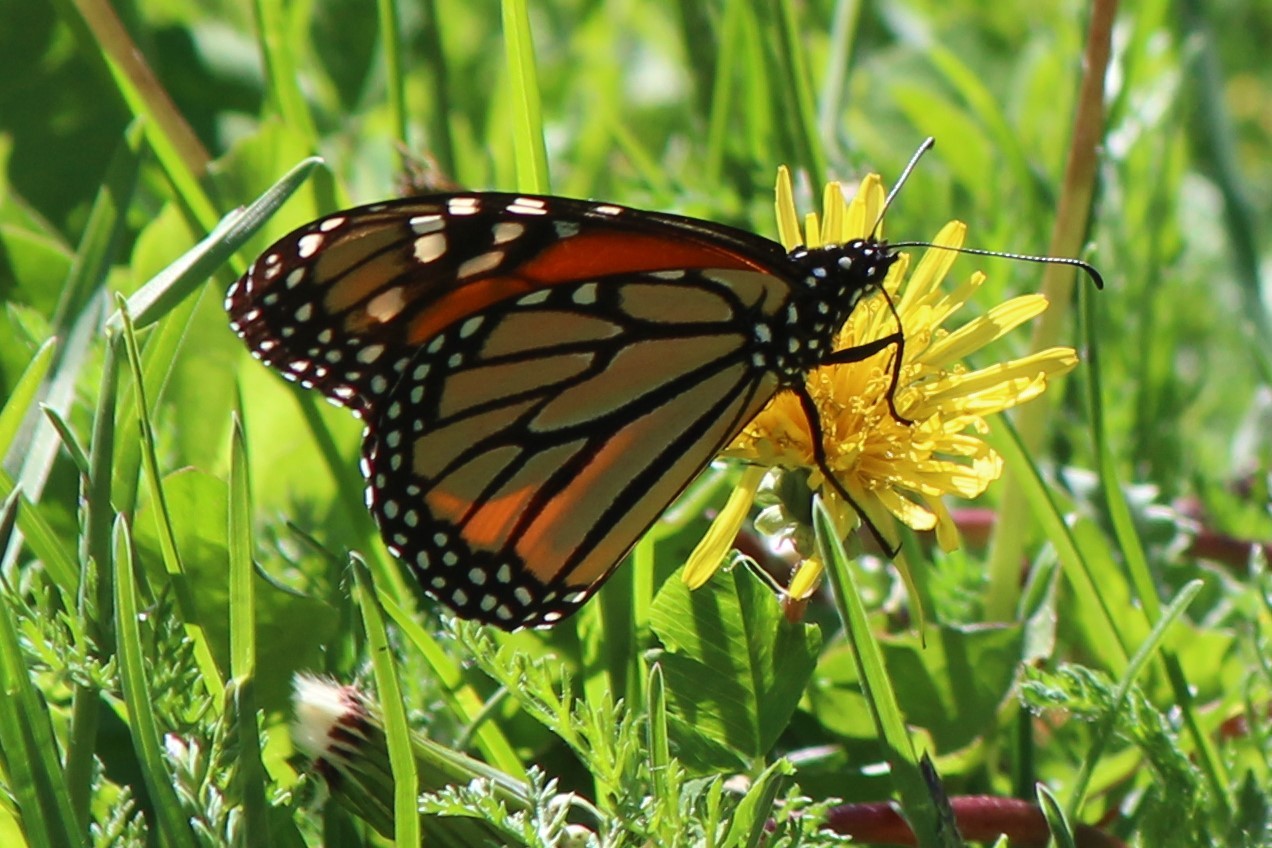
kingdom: Animalia
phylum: Arthropoda
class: Insecta
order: Lepidoptera
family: Nymphalidae
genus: Danaus
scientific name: Danaus plexippus
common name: Monarch
